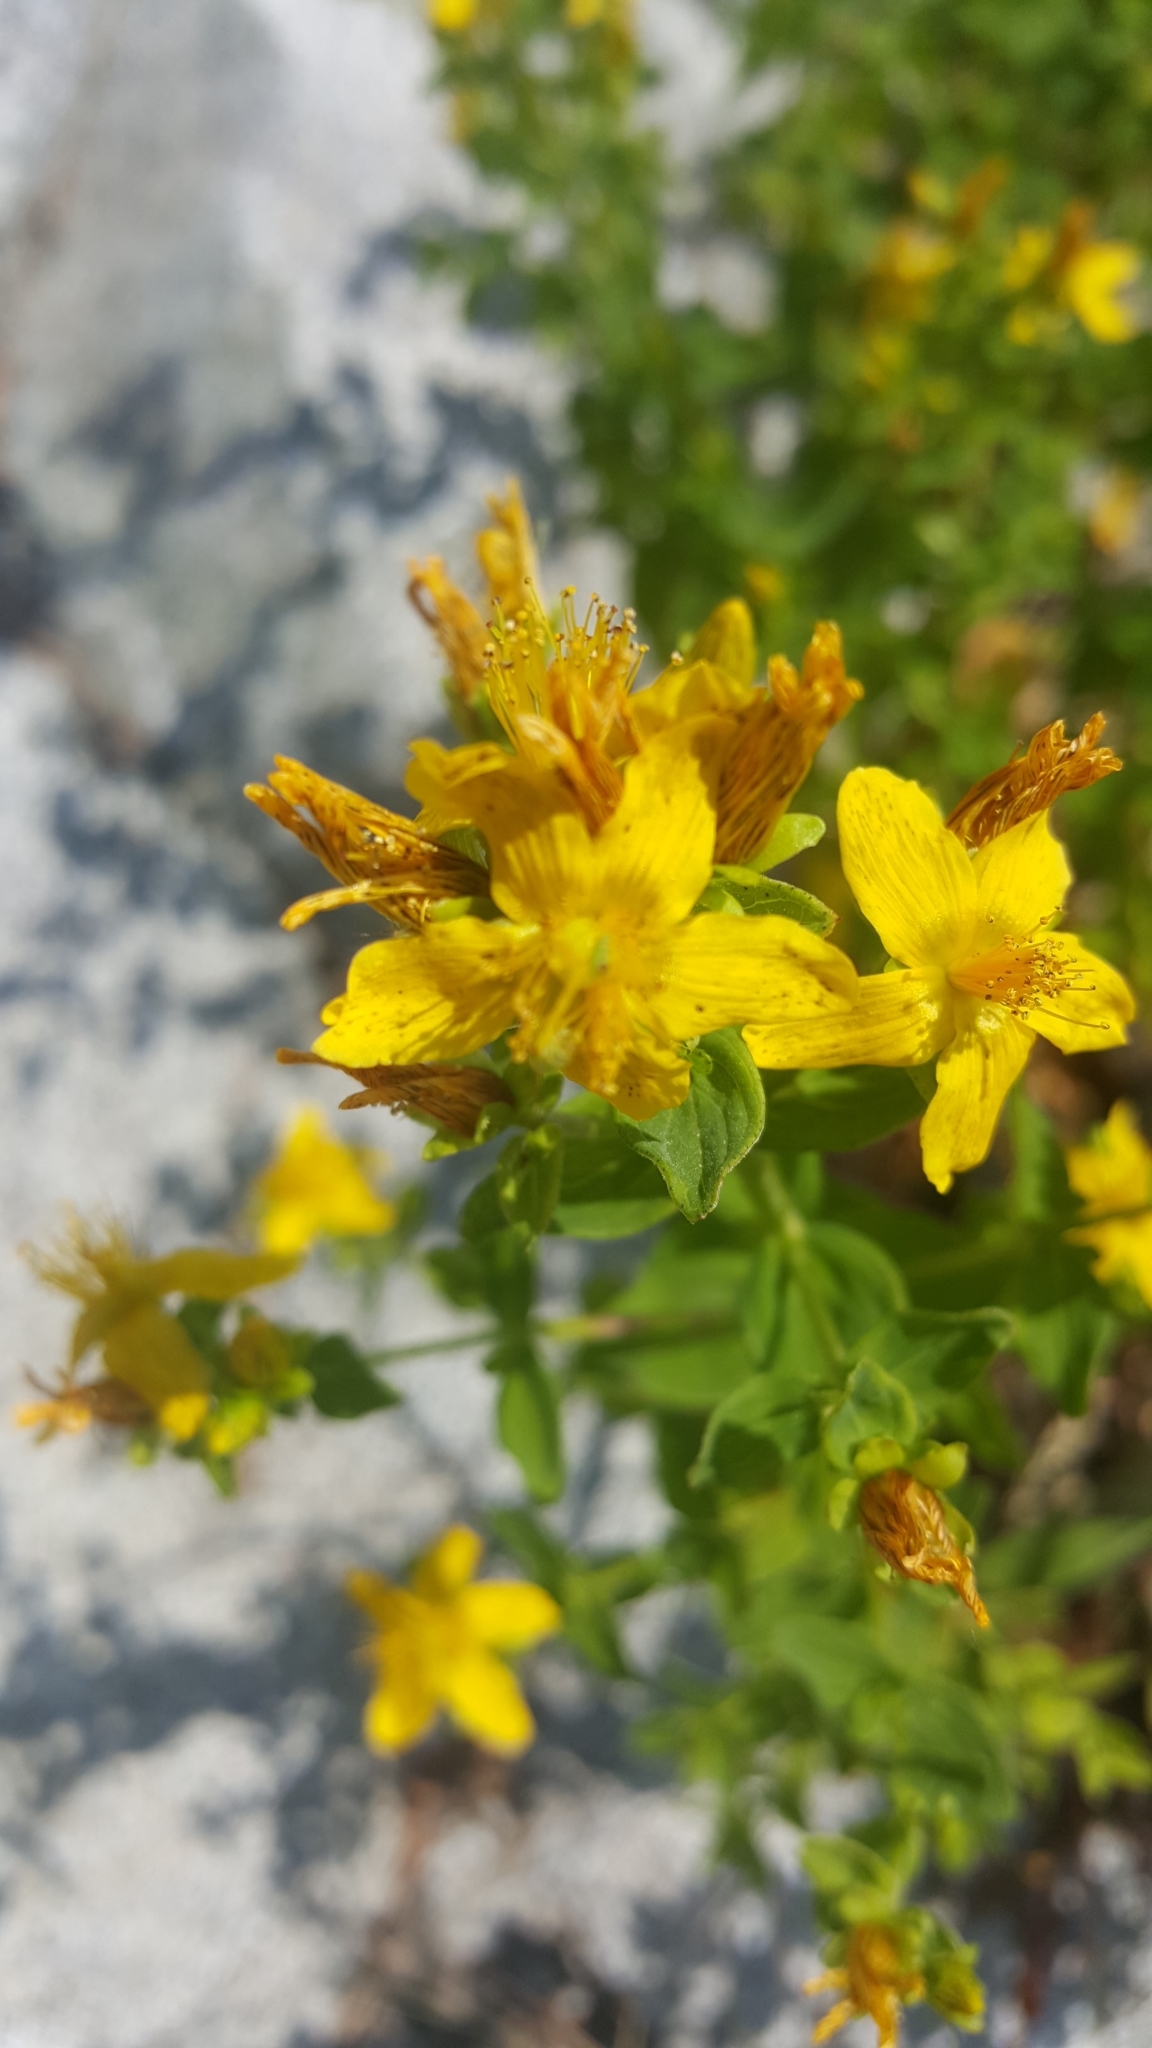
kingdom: Plantae
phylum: Tracheophyta
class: Magnoliopsida
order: Malpighiales
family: Hypericaceae
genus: Hypericum
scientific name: Hypericum perforatum
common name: Common st. johnswort
